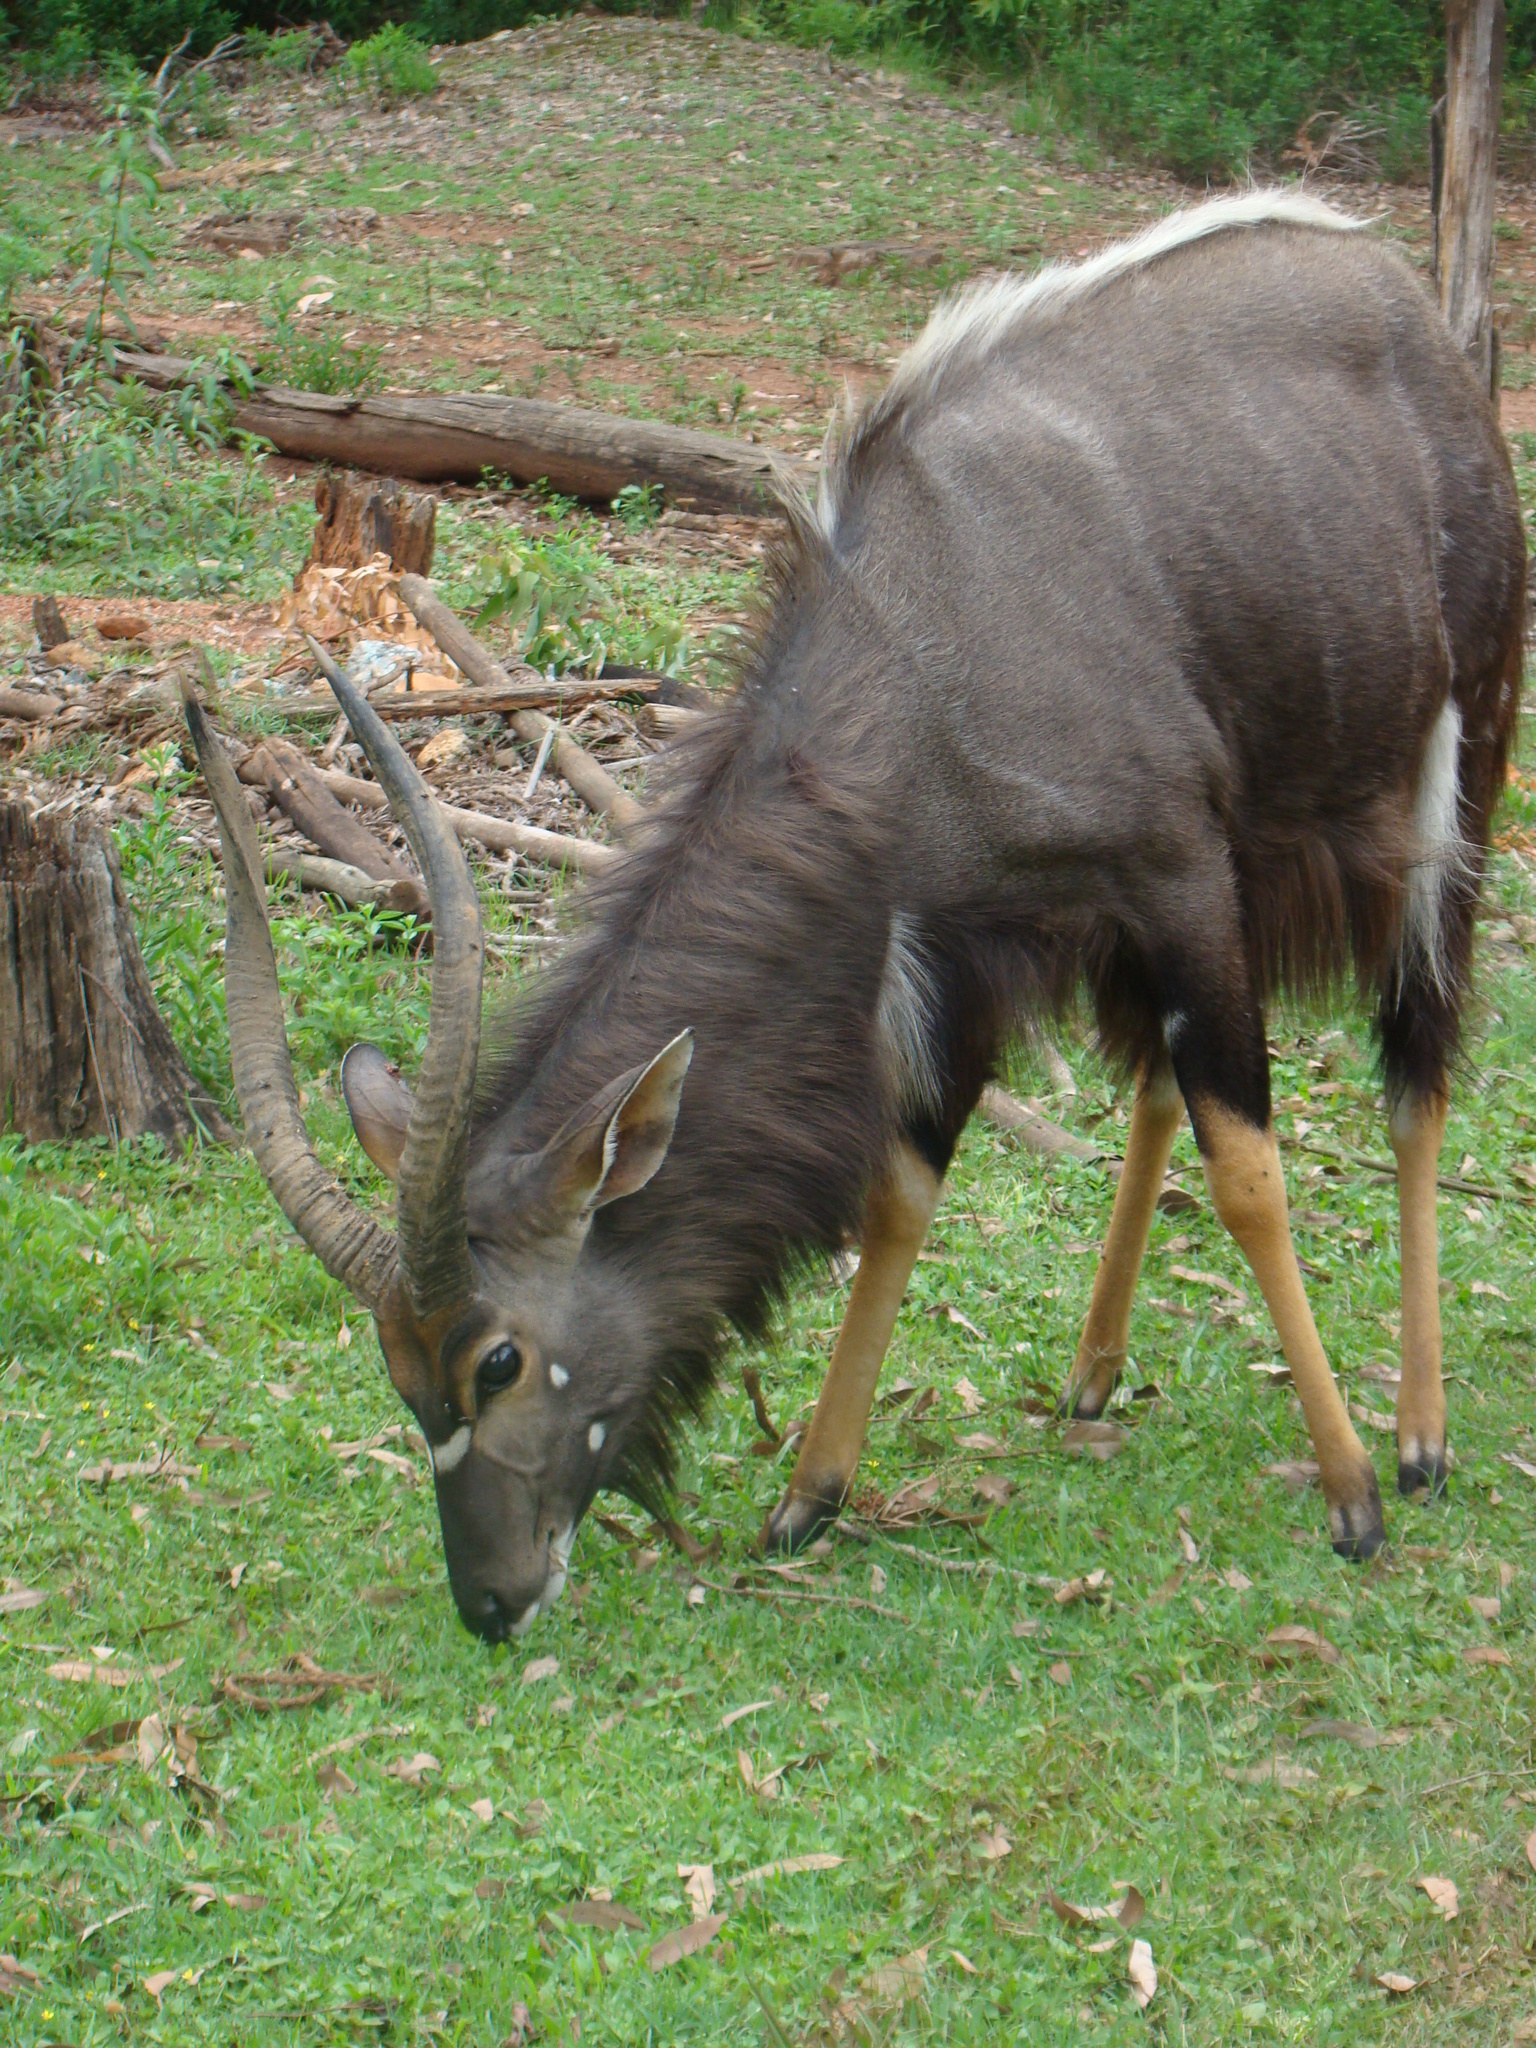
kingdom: Animalia
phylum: Chordata
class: Mammalia
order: Artiodactyla
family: Bovidae
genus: Tragelaphus
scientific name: Tragelaphus angasii
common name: Nyala
